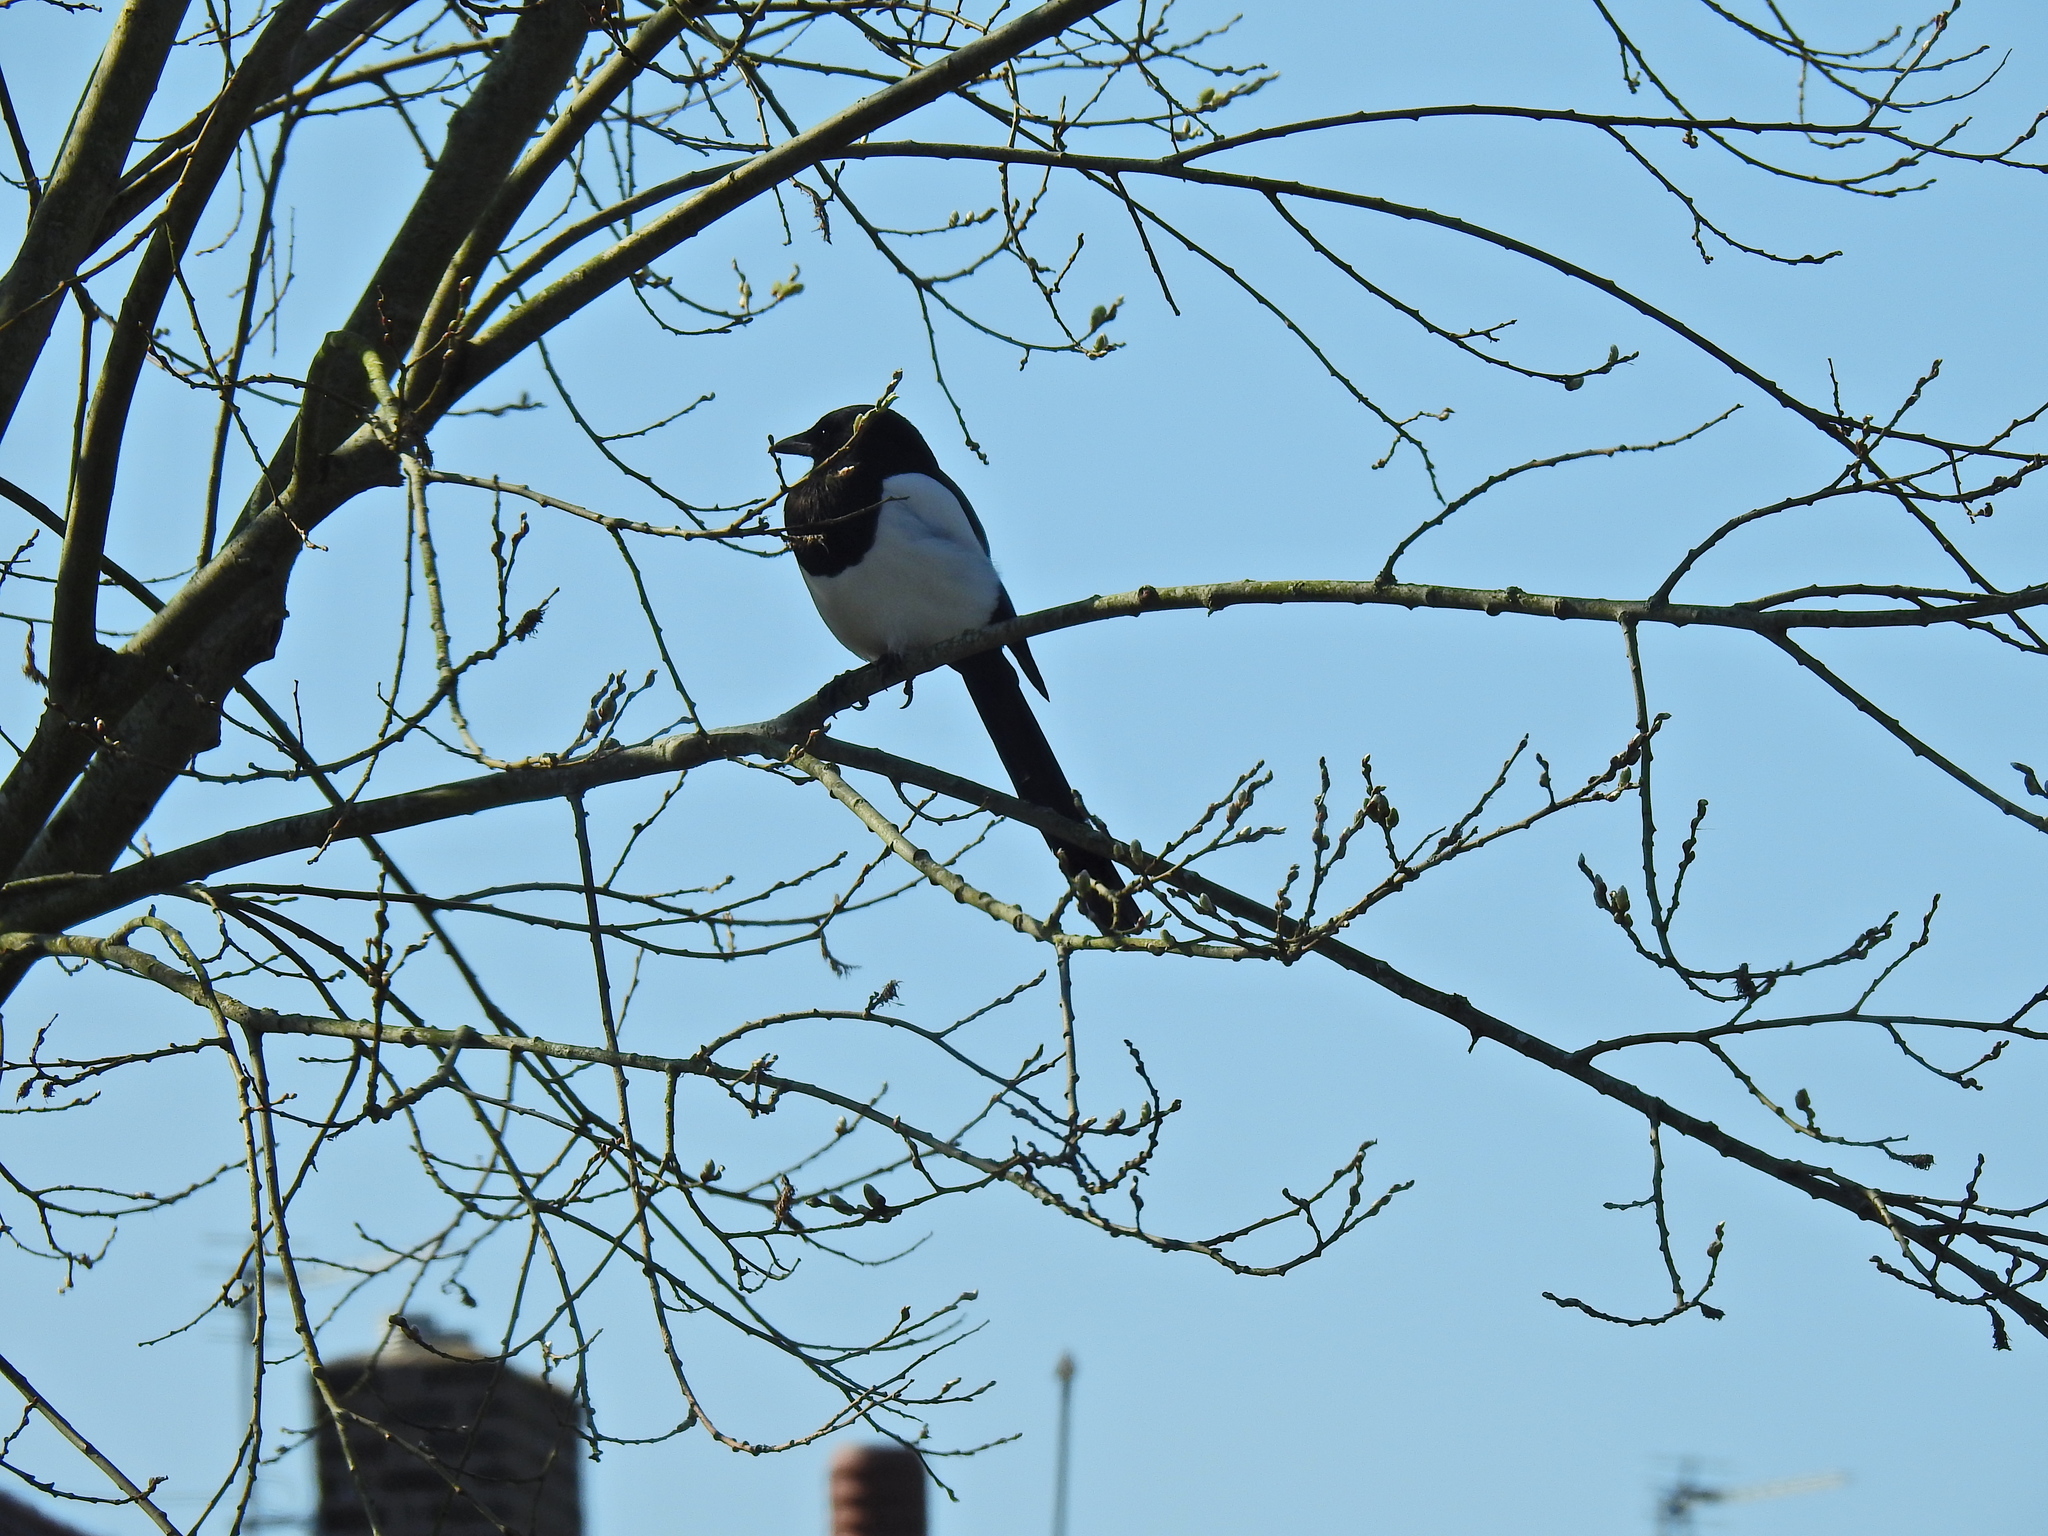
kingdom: Animalia
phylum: Chordata
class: Aves
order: Passeriformes
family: Corvidae
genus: Pica
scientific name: Pica pica
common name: Eurasian magpie
